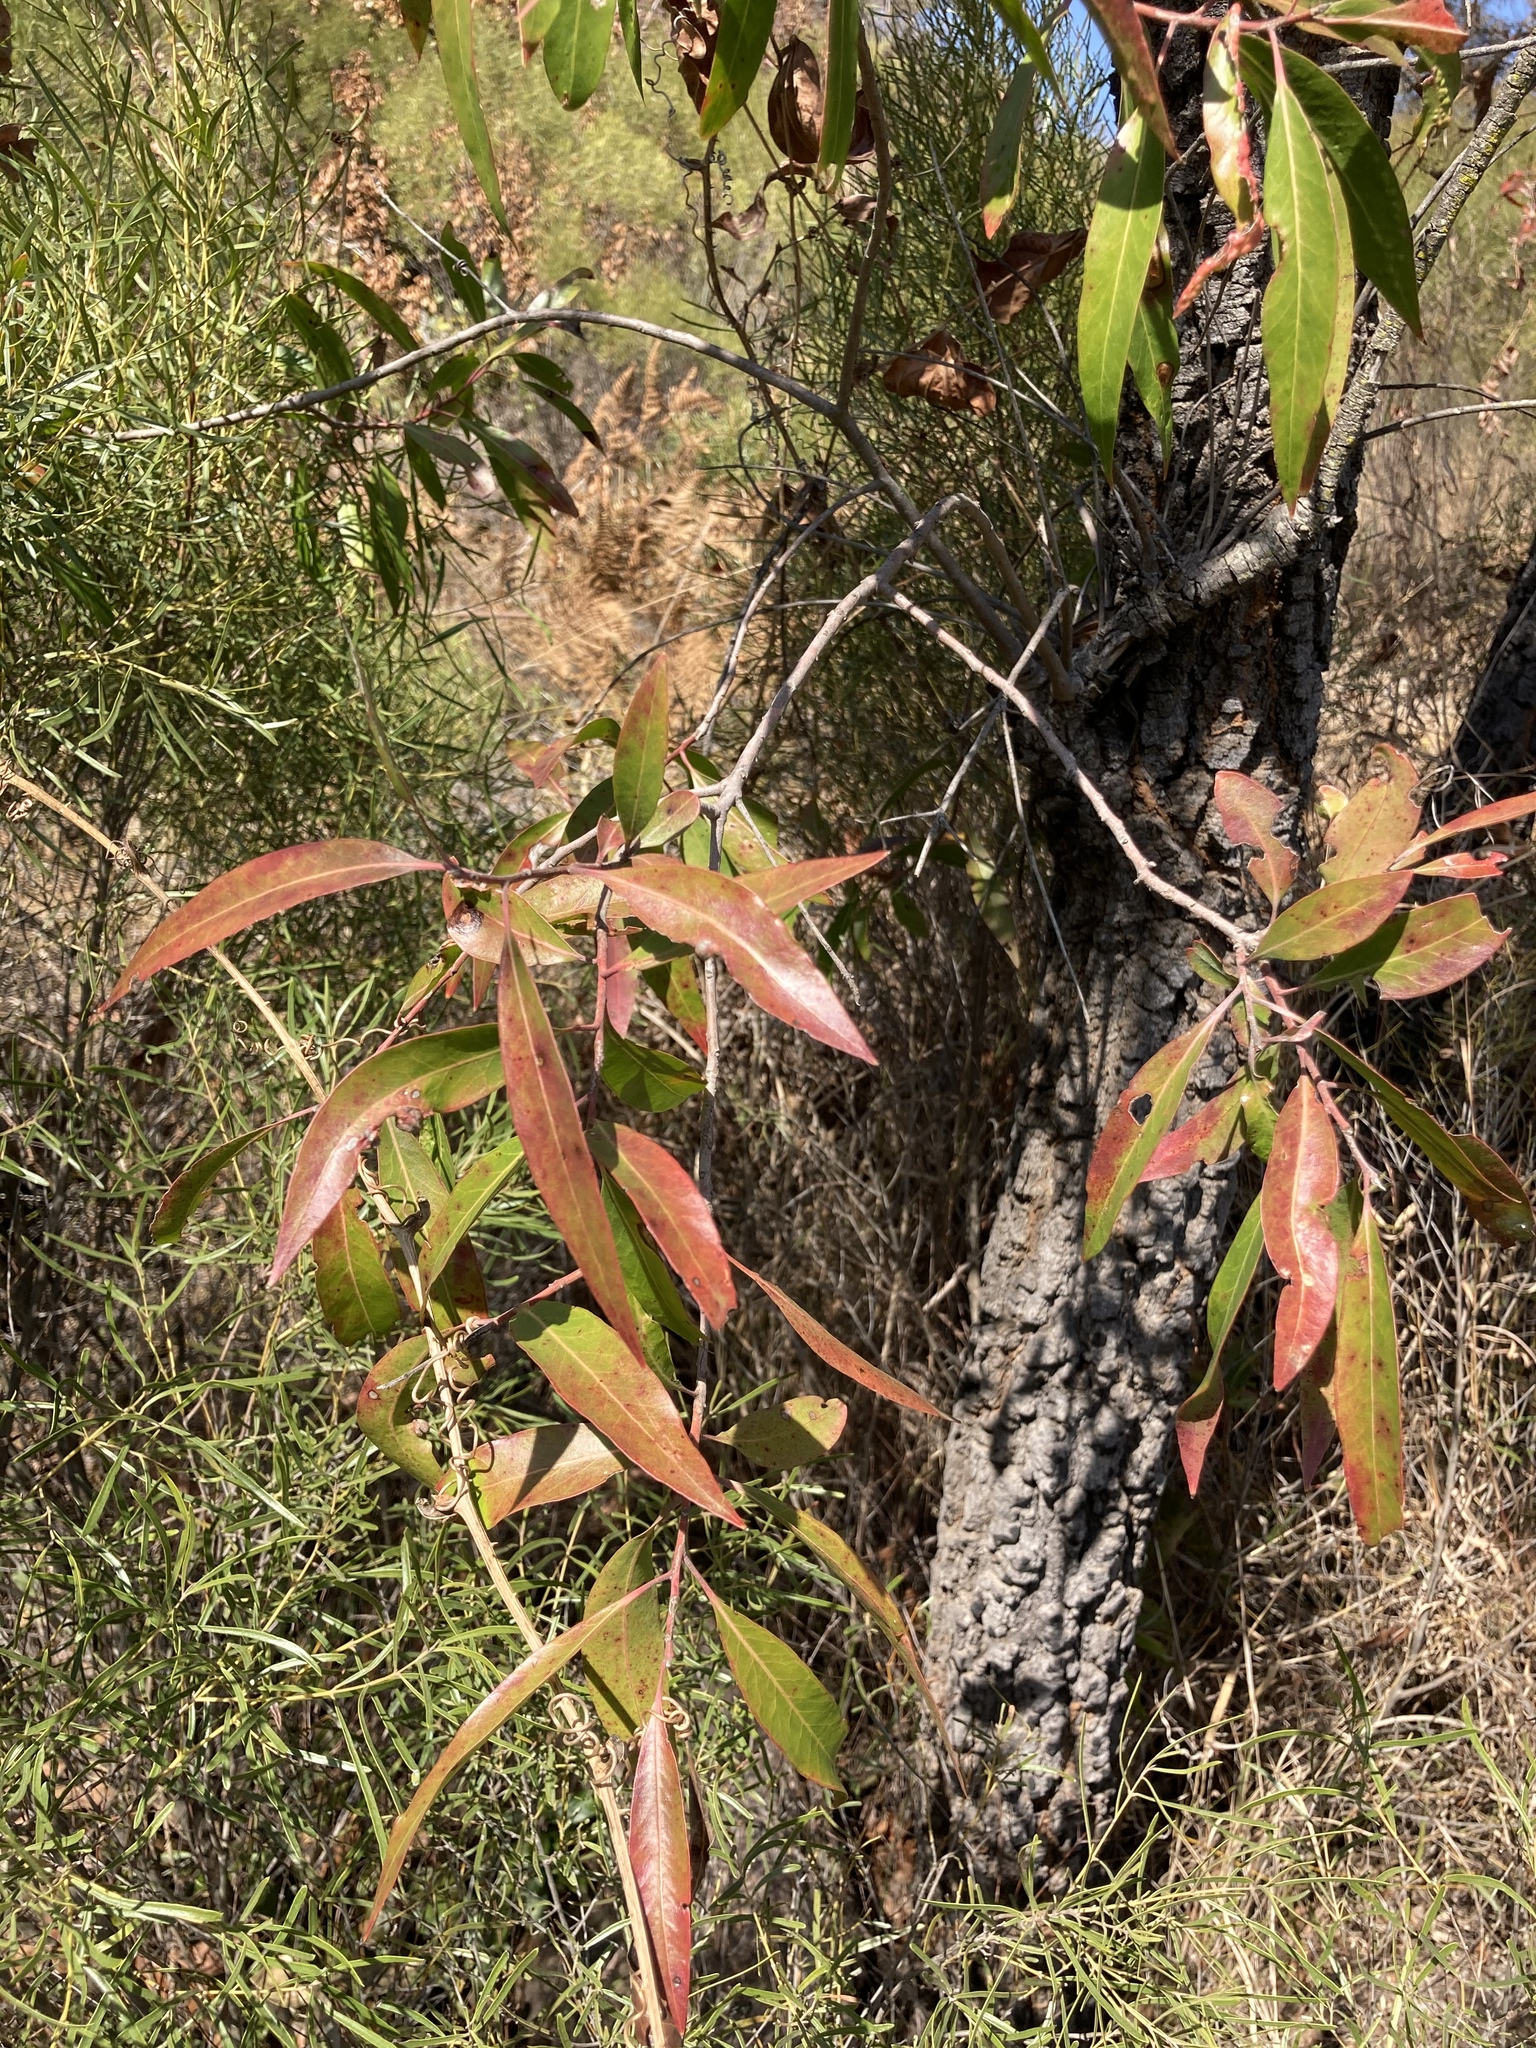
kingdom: Plantae
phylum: Tracheophyta
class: Magnoliopsida
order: Proteales
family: Proteaceae
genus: Faurea
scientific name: Faurea saligna
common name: African bean
